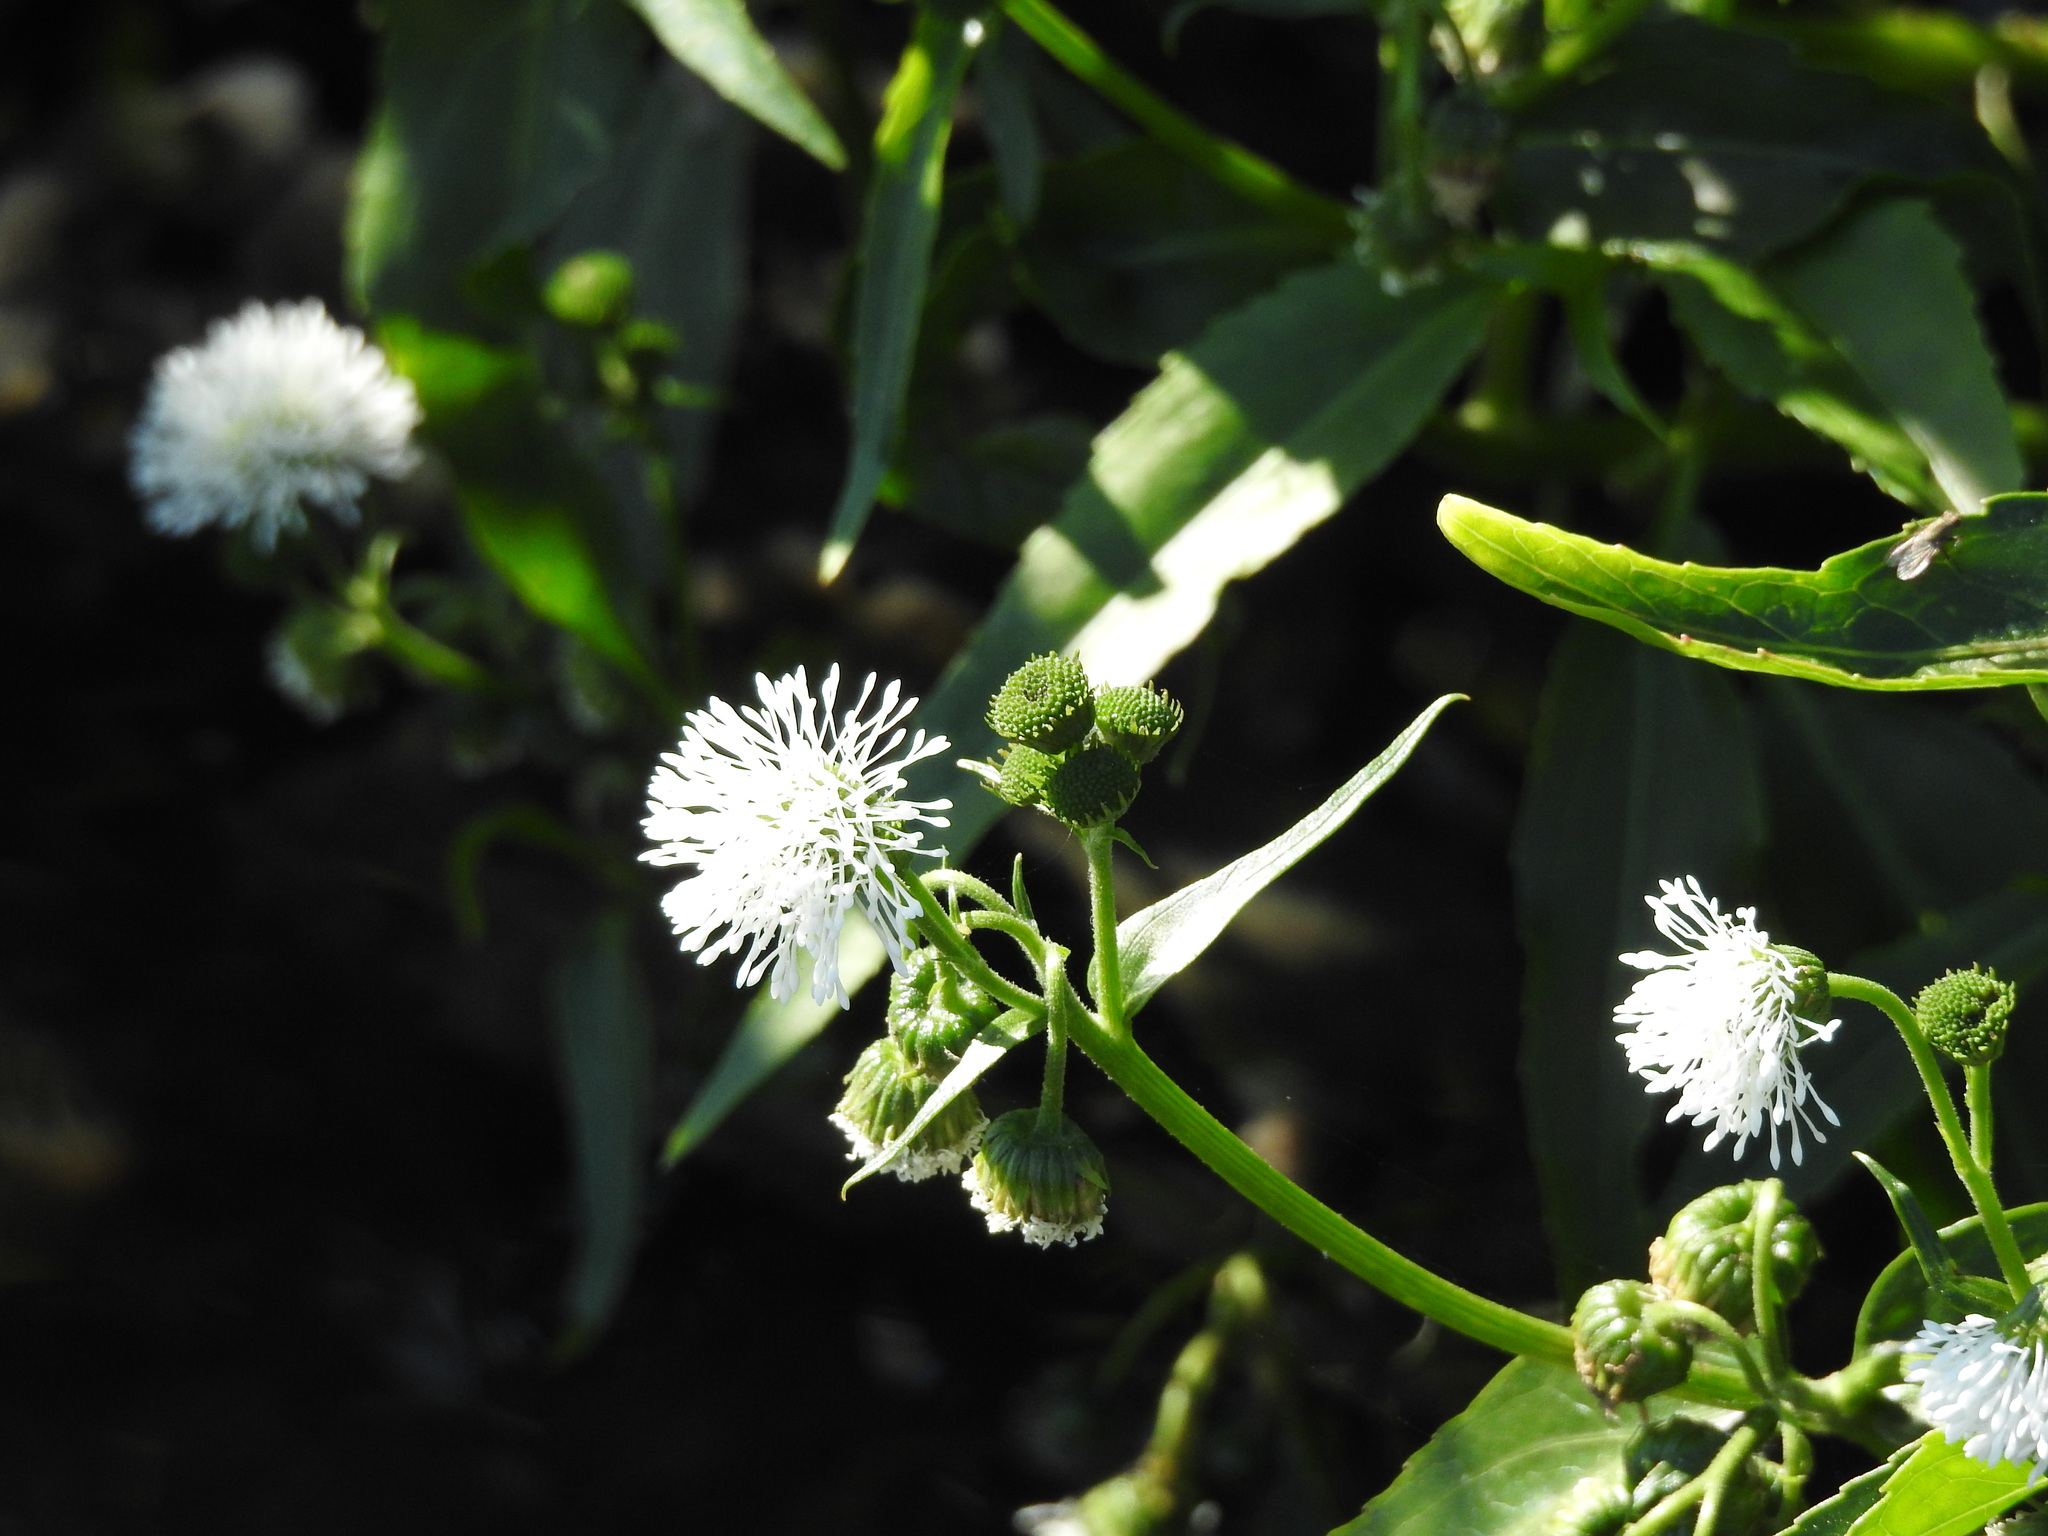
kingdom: Plantae
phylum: Tracheophyta
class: Magnoliopsida
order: Asterales
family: Asteraceae
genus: Gymnocoronis
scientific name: Gymnocoronis spilanthoides
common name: Senegal teaplant
